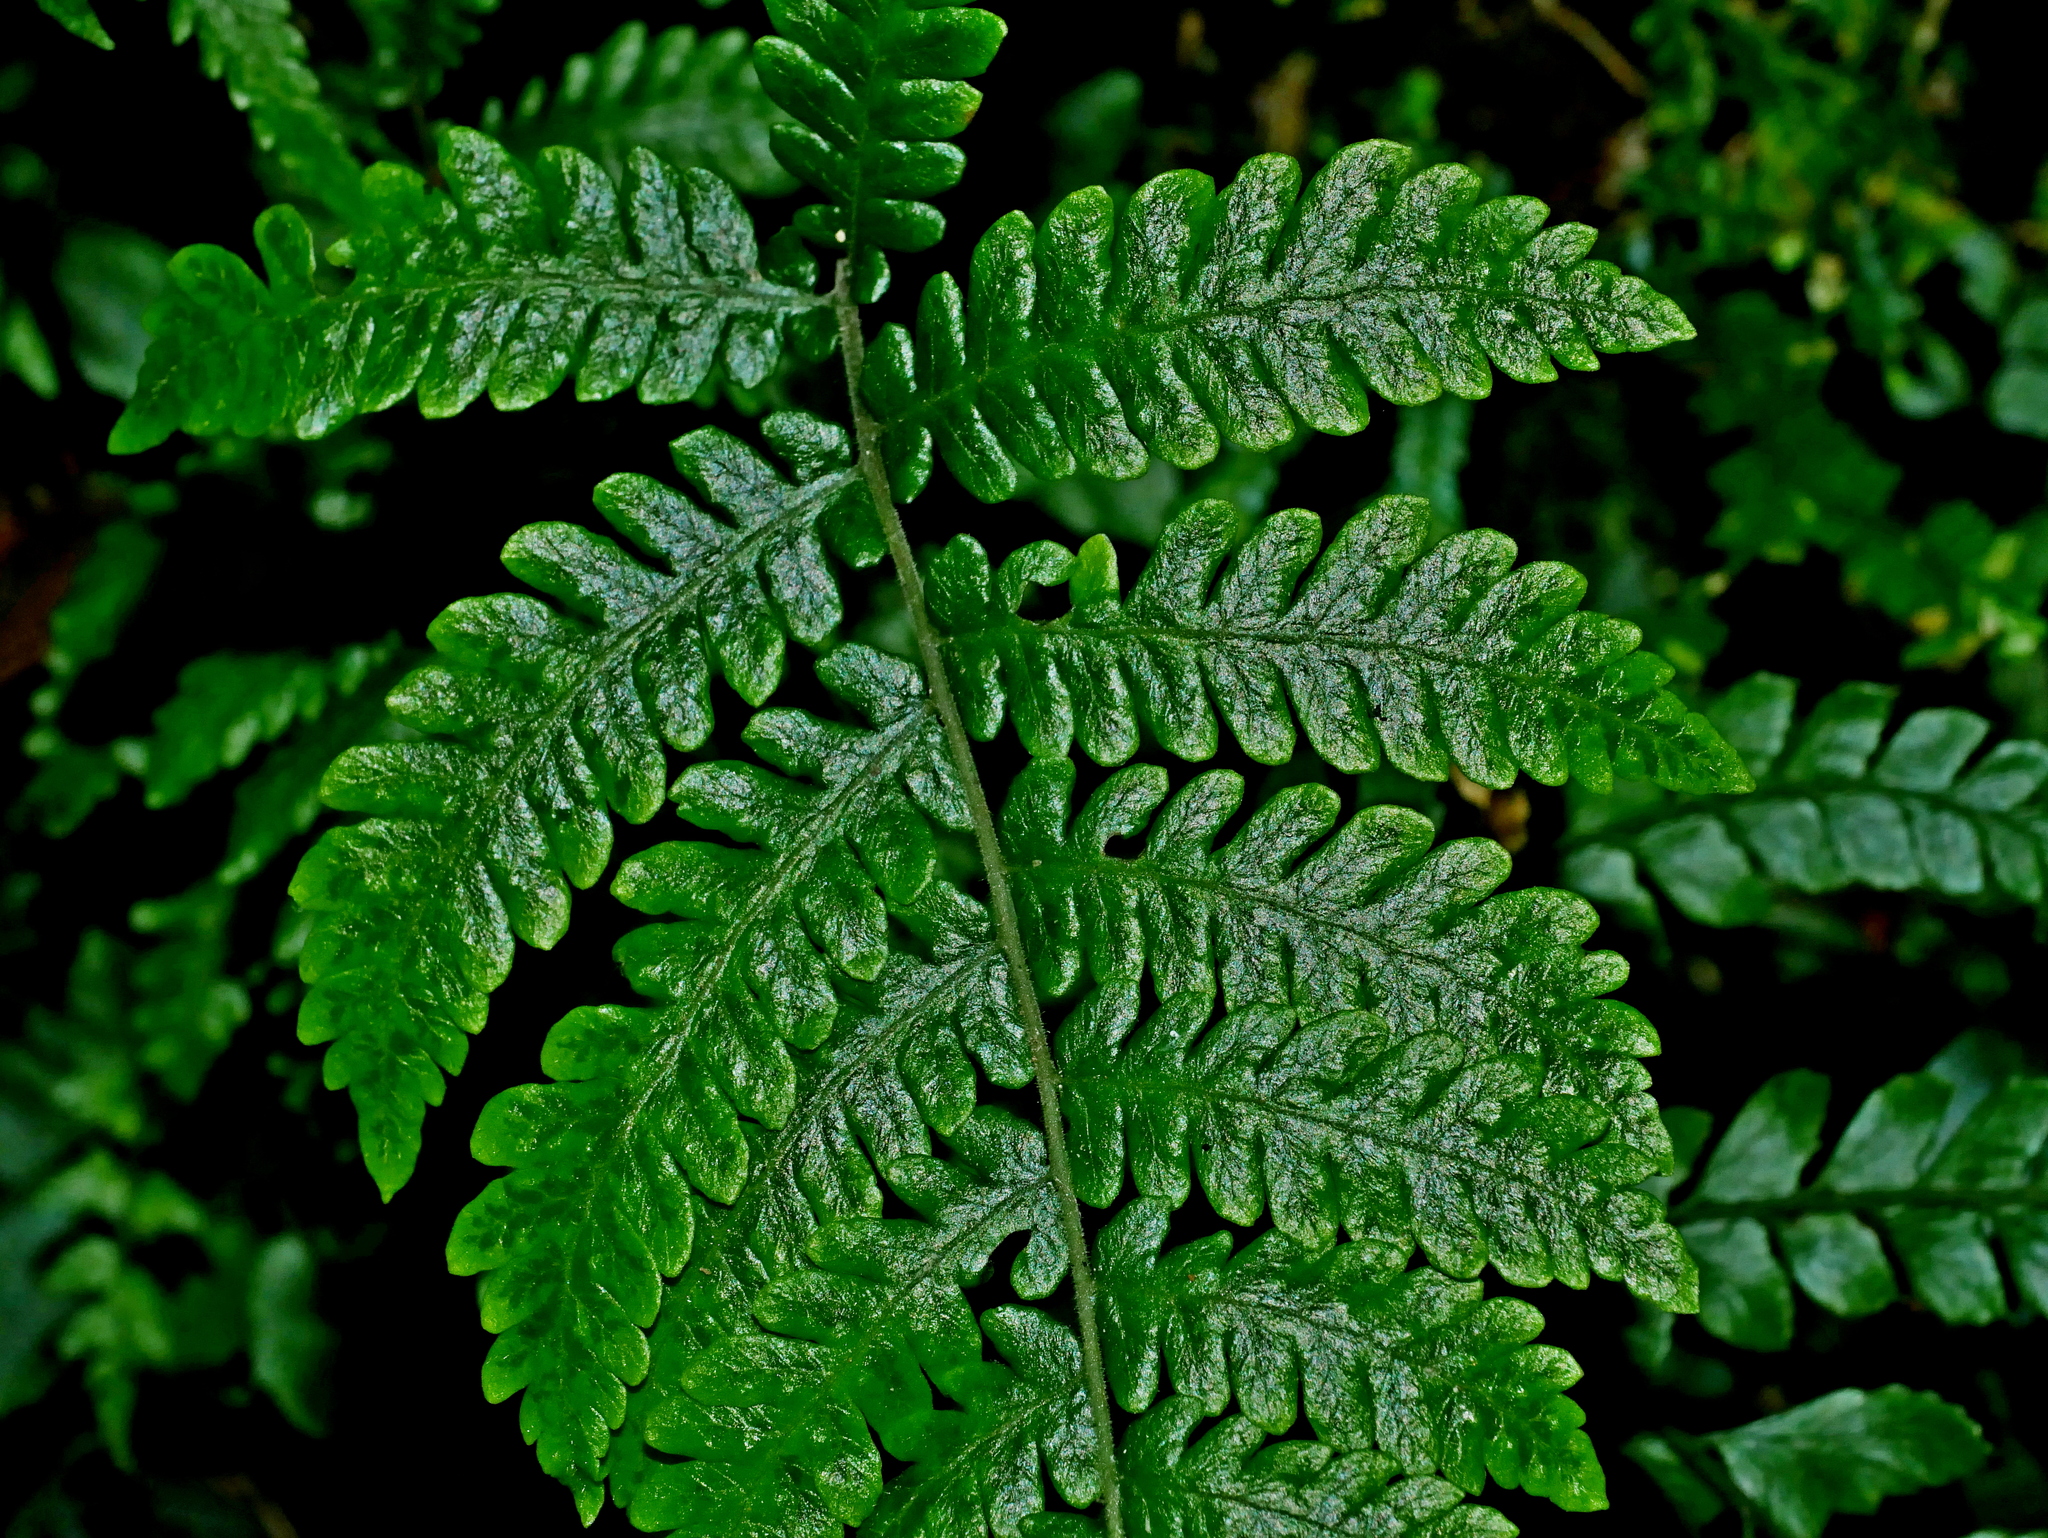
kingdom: Plantae
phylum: Tracheophyta
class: Polypodiopsida
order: Polypodiales
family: Thelypteridaceae
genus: Metathelypteris
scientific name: Metathelypteris uraiensis
